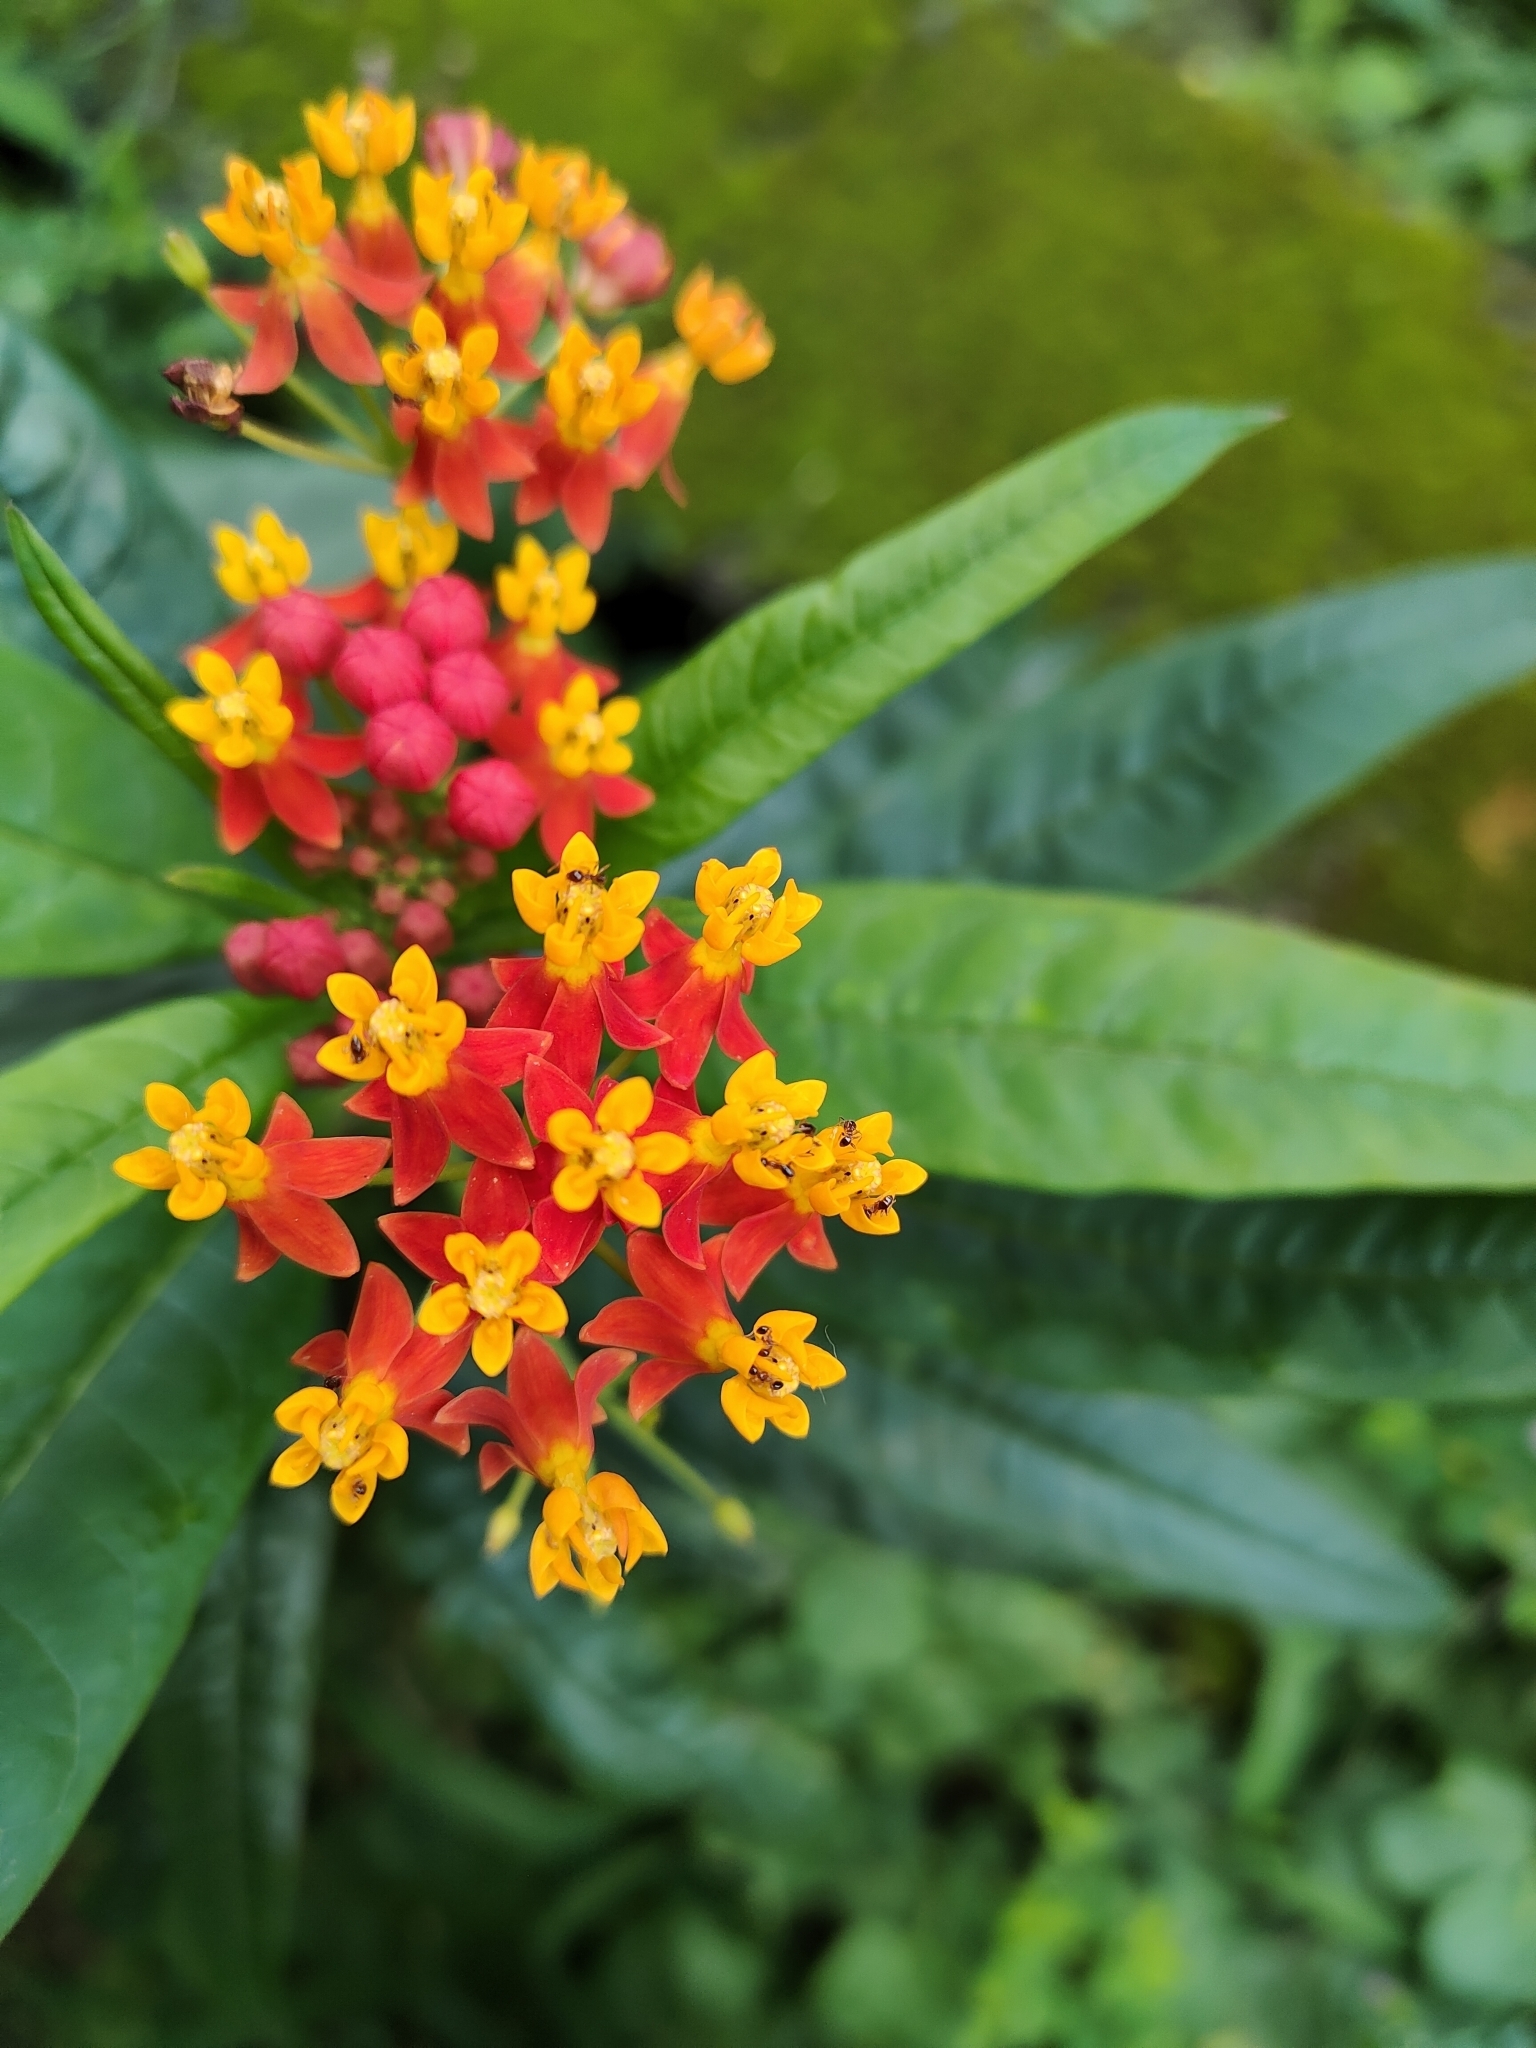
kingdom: Plantae
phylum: Tracheophyta
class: Magnoliopsida
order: Gentianales
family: Apocynaceae
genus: Asclepias
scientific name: Asclepias curassavica
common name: Bloodflower
